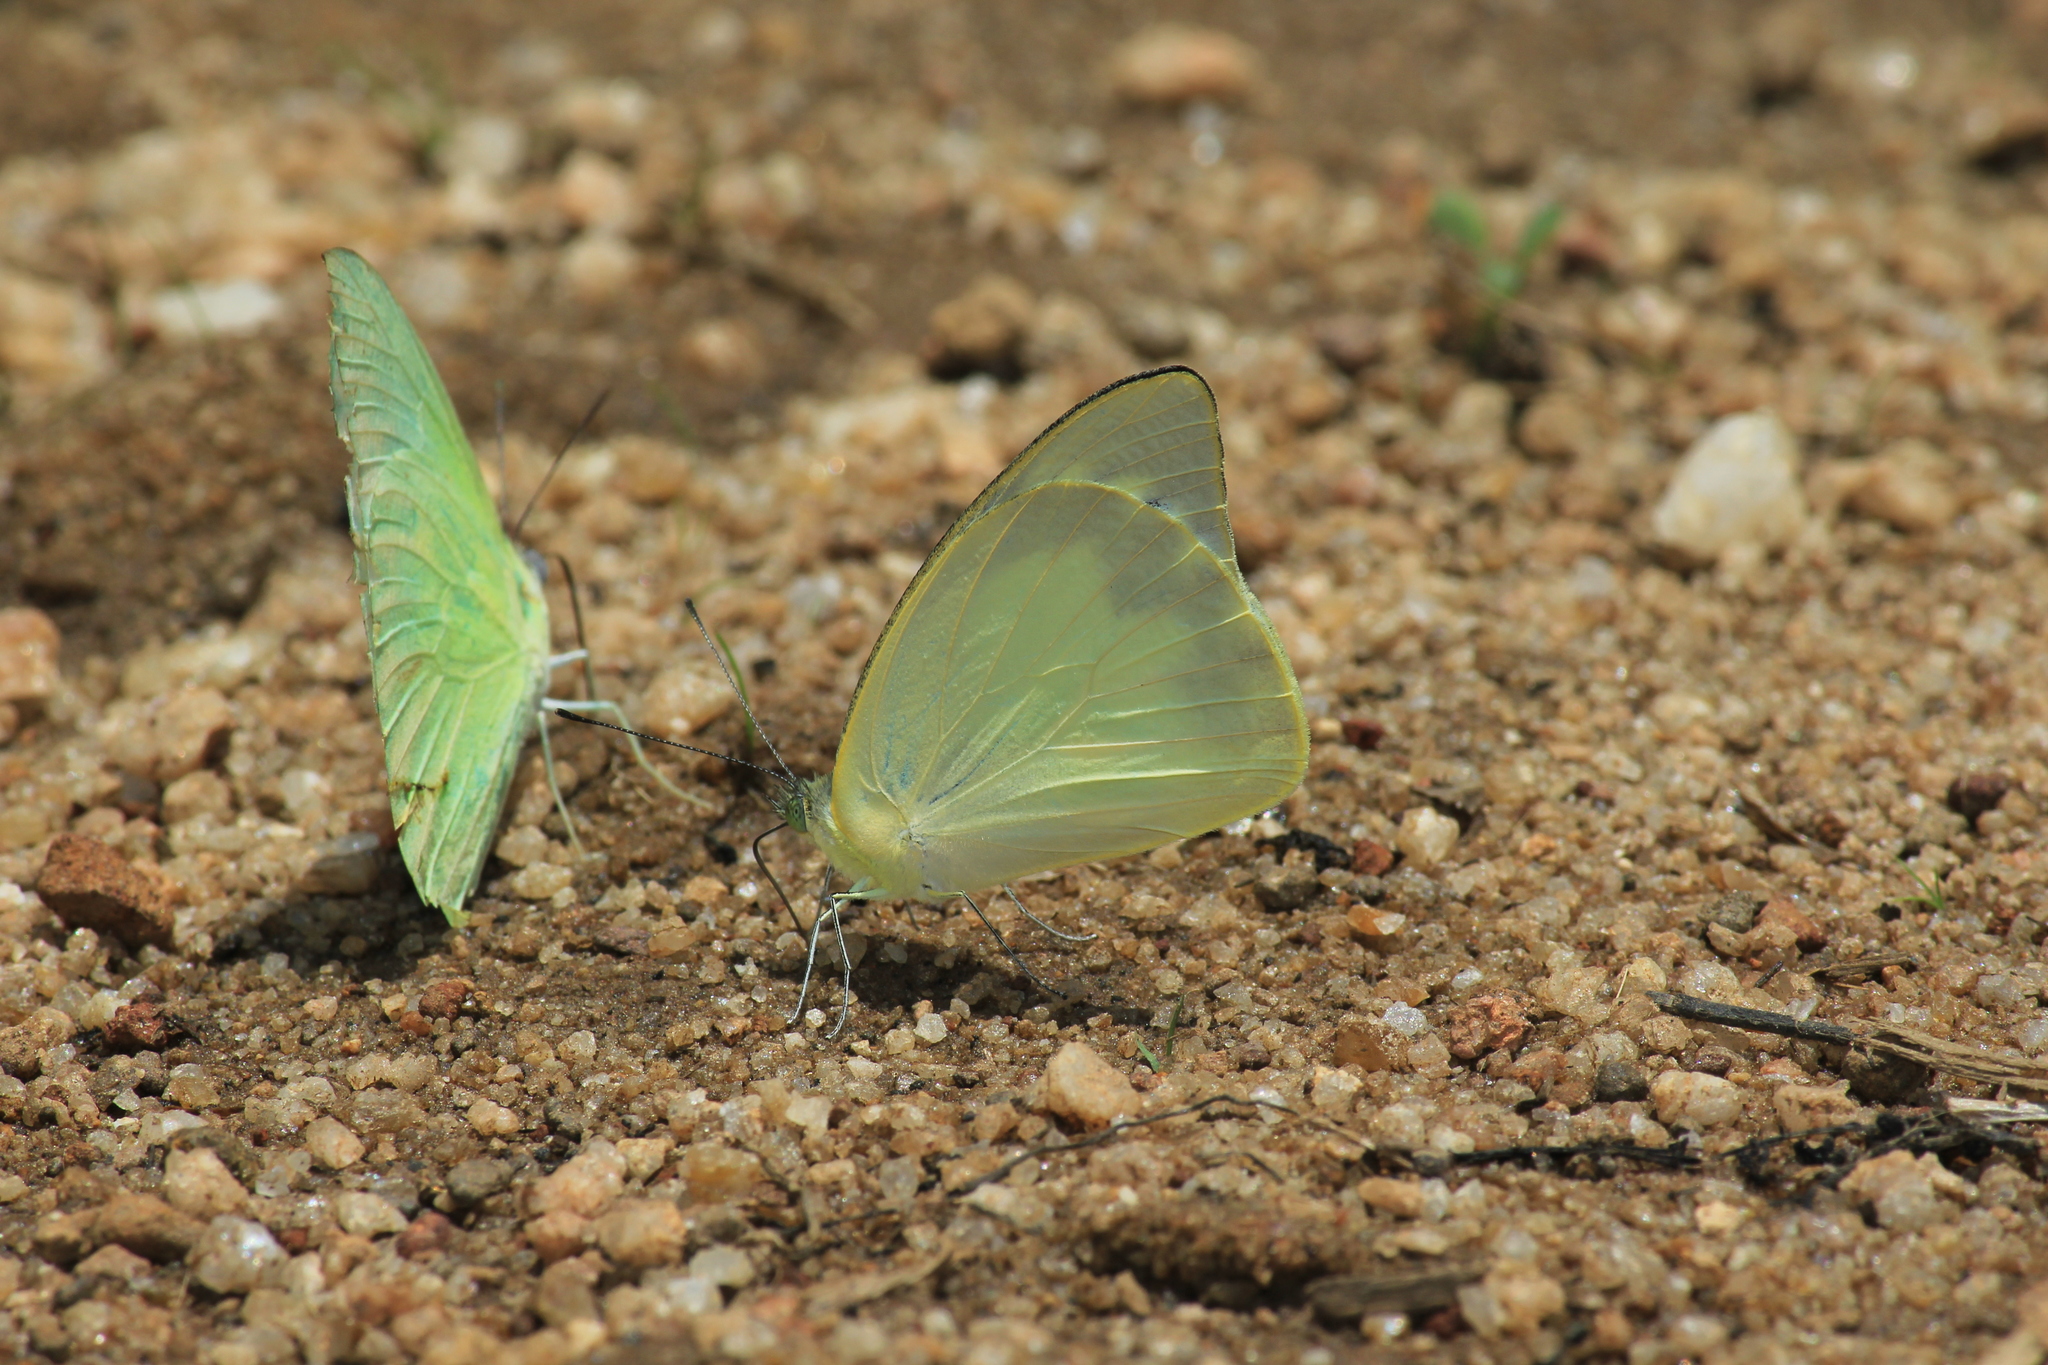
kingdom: Animalia
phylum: Arthropoda
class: Insecta
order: Lepidoptera
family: Pieridae
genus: Appias
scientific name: Appias albina
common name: Common albatross
